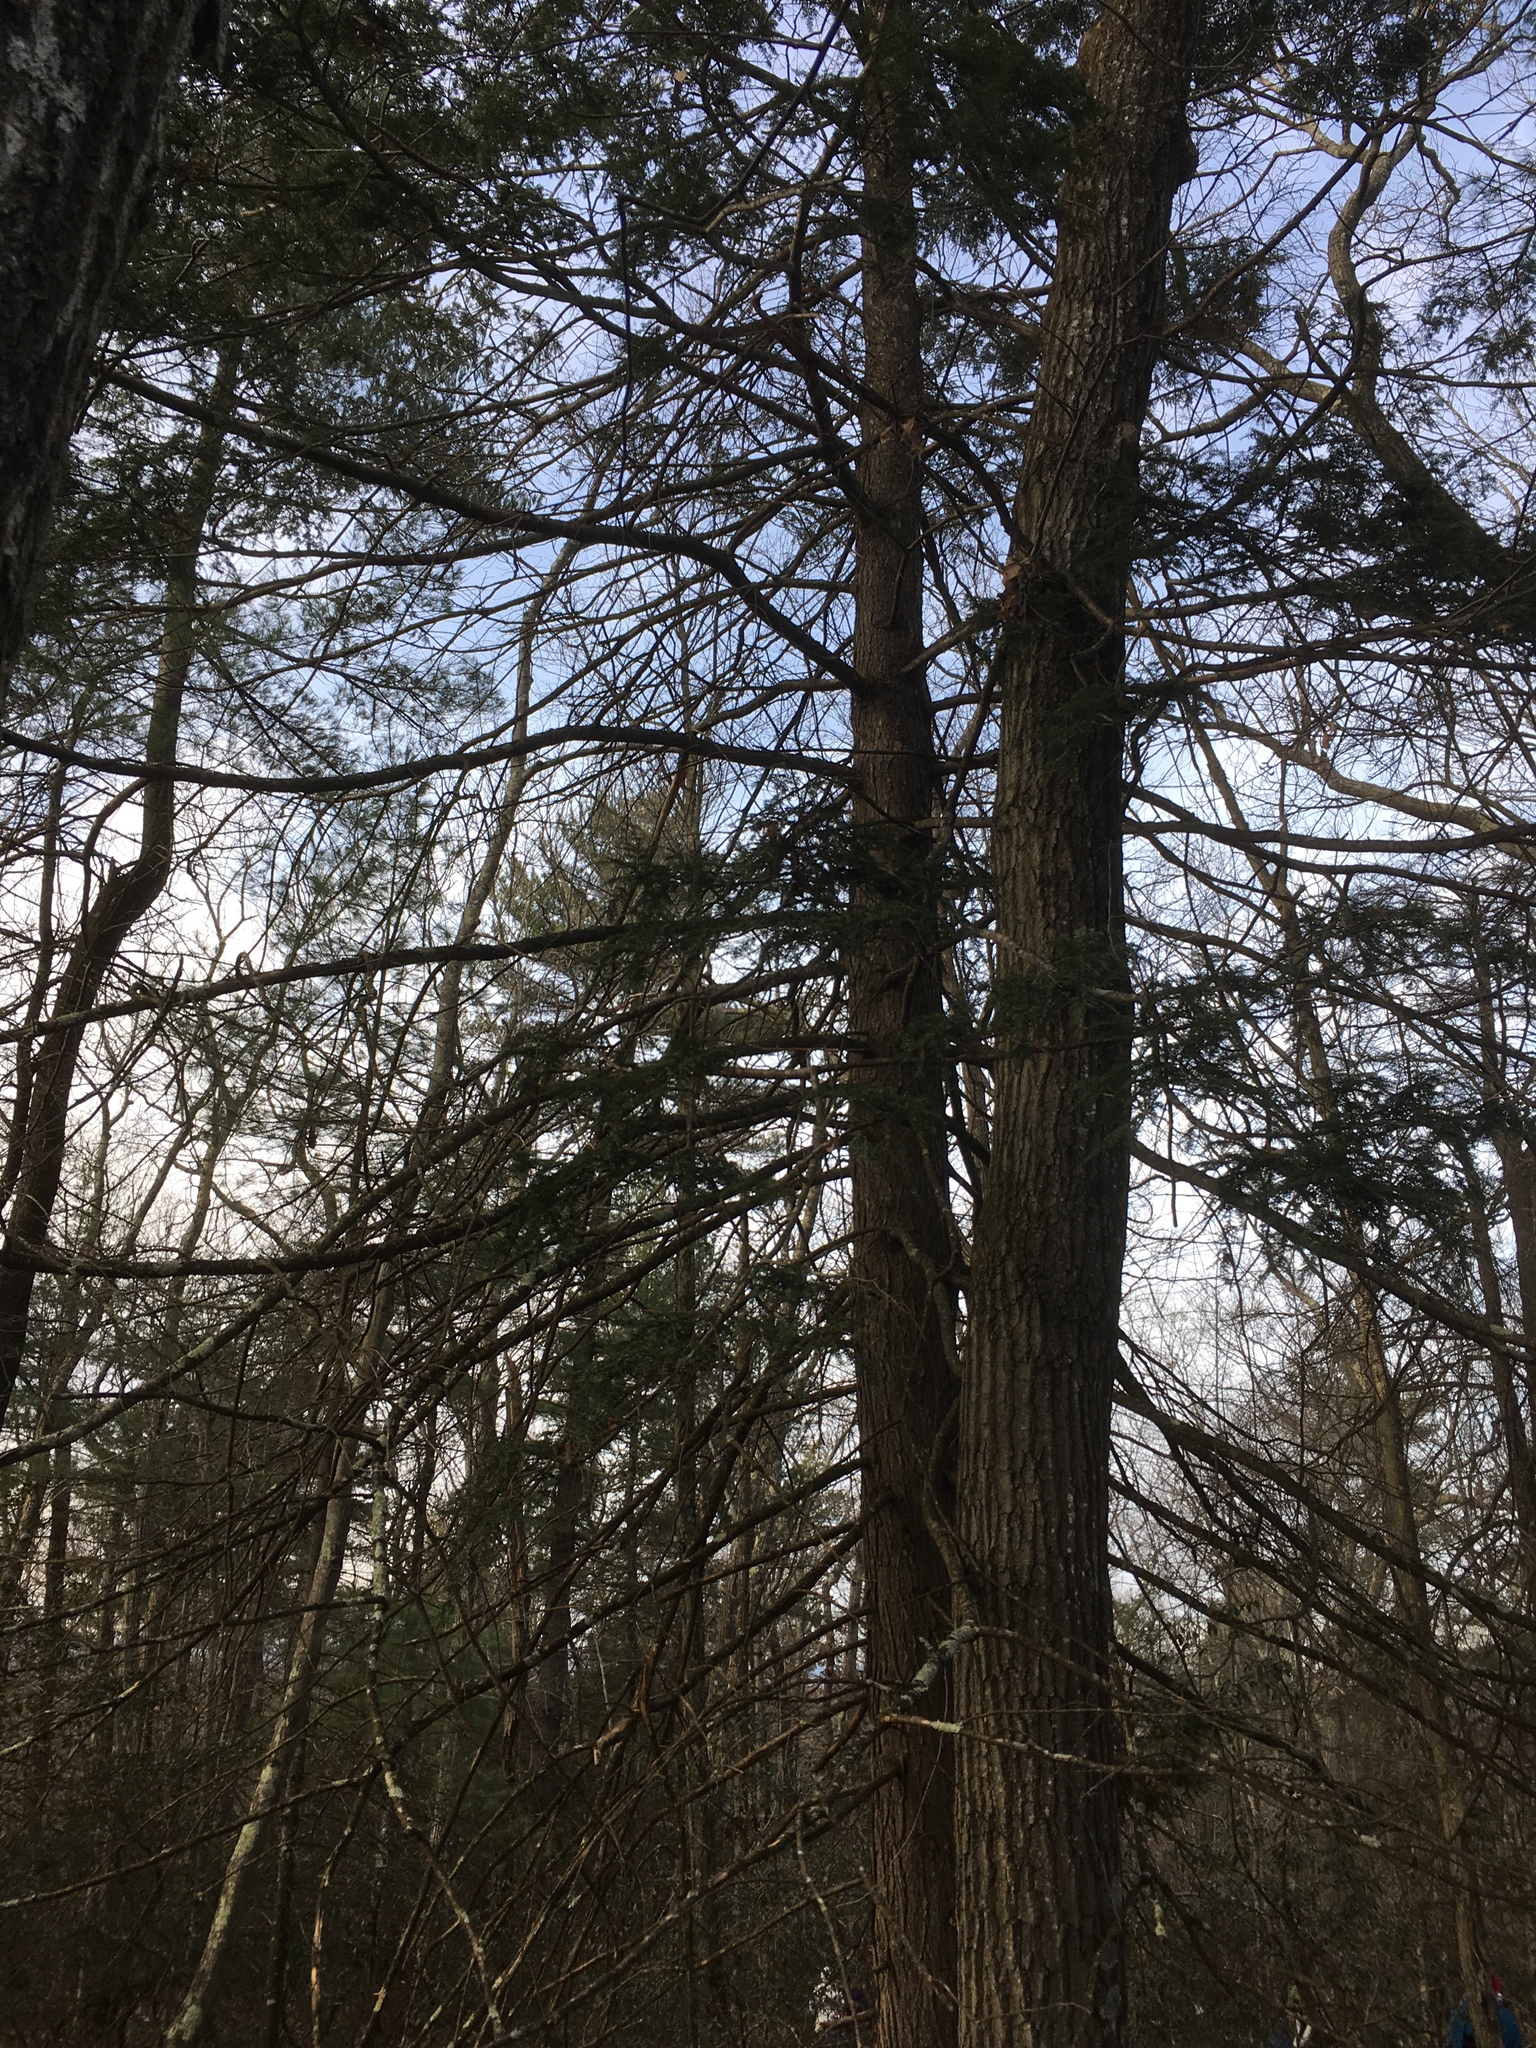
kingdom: Plantae
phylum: Tracheophyta
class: Pinopsida
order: Pinales
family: Pinaceae
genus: Tsuga
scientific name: Tsuga canadensis
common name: Eastern hemlock
